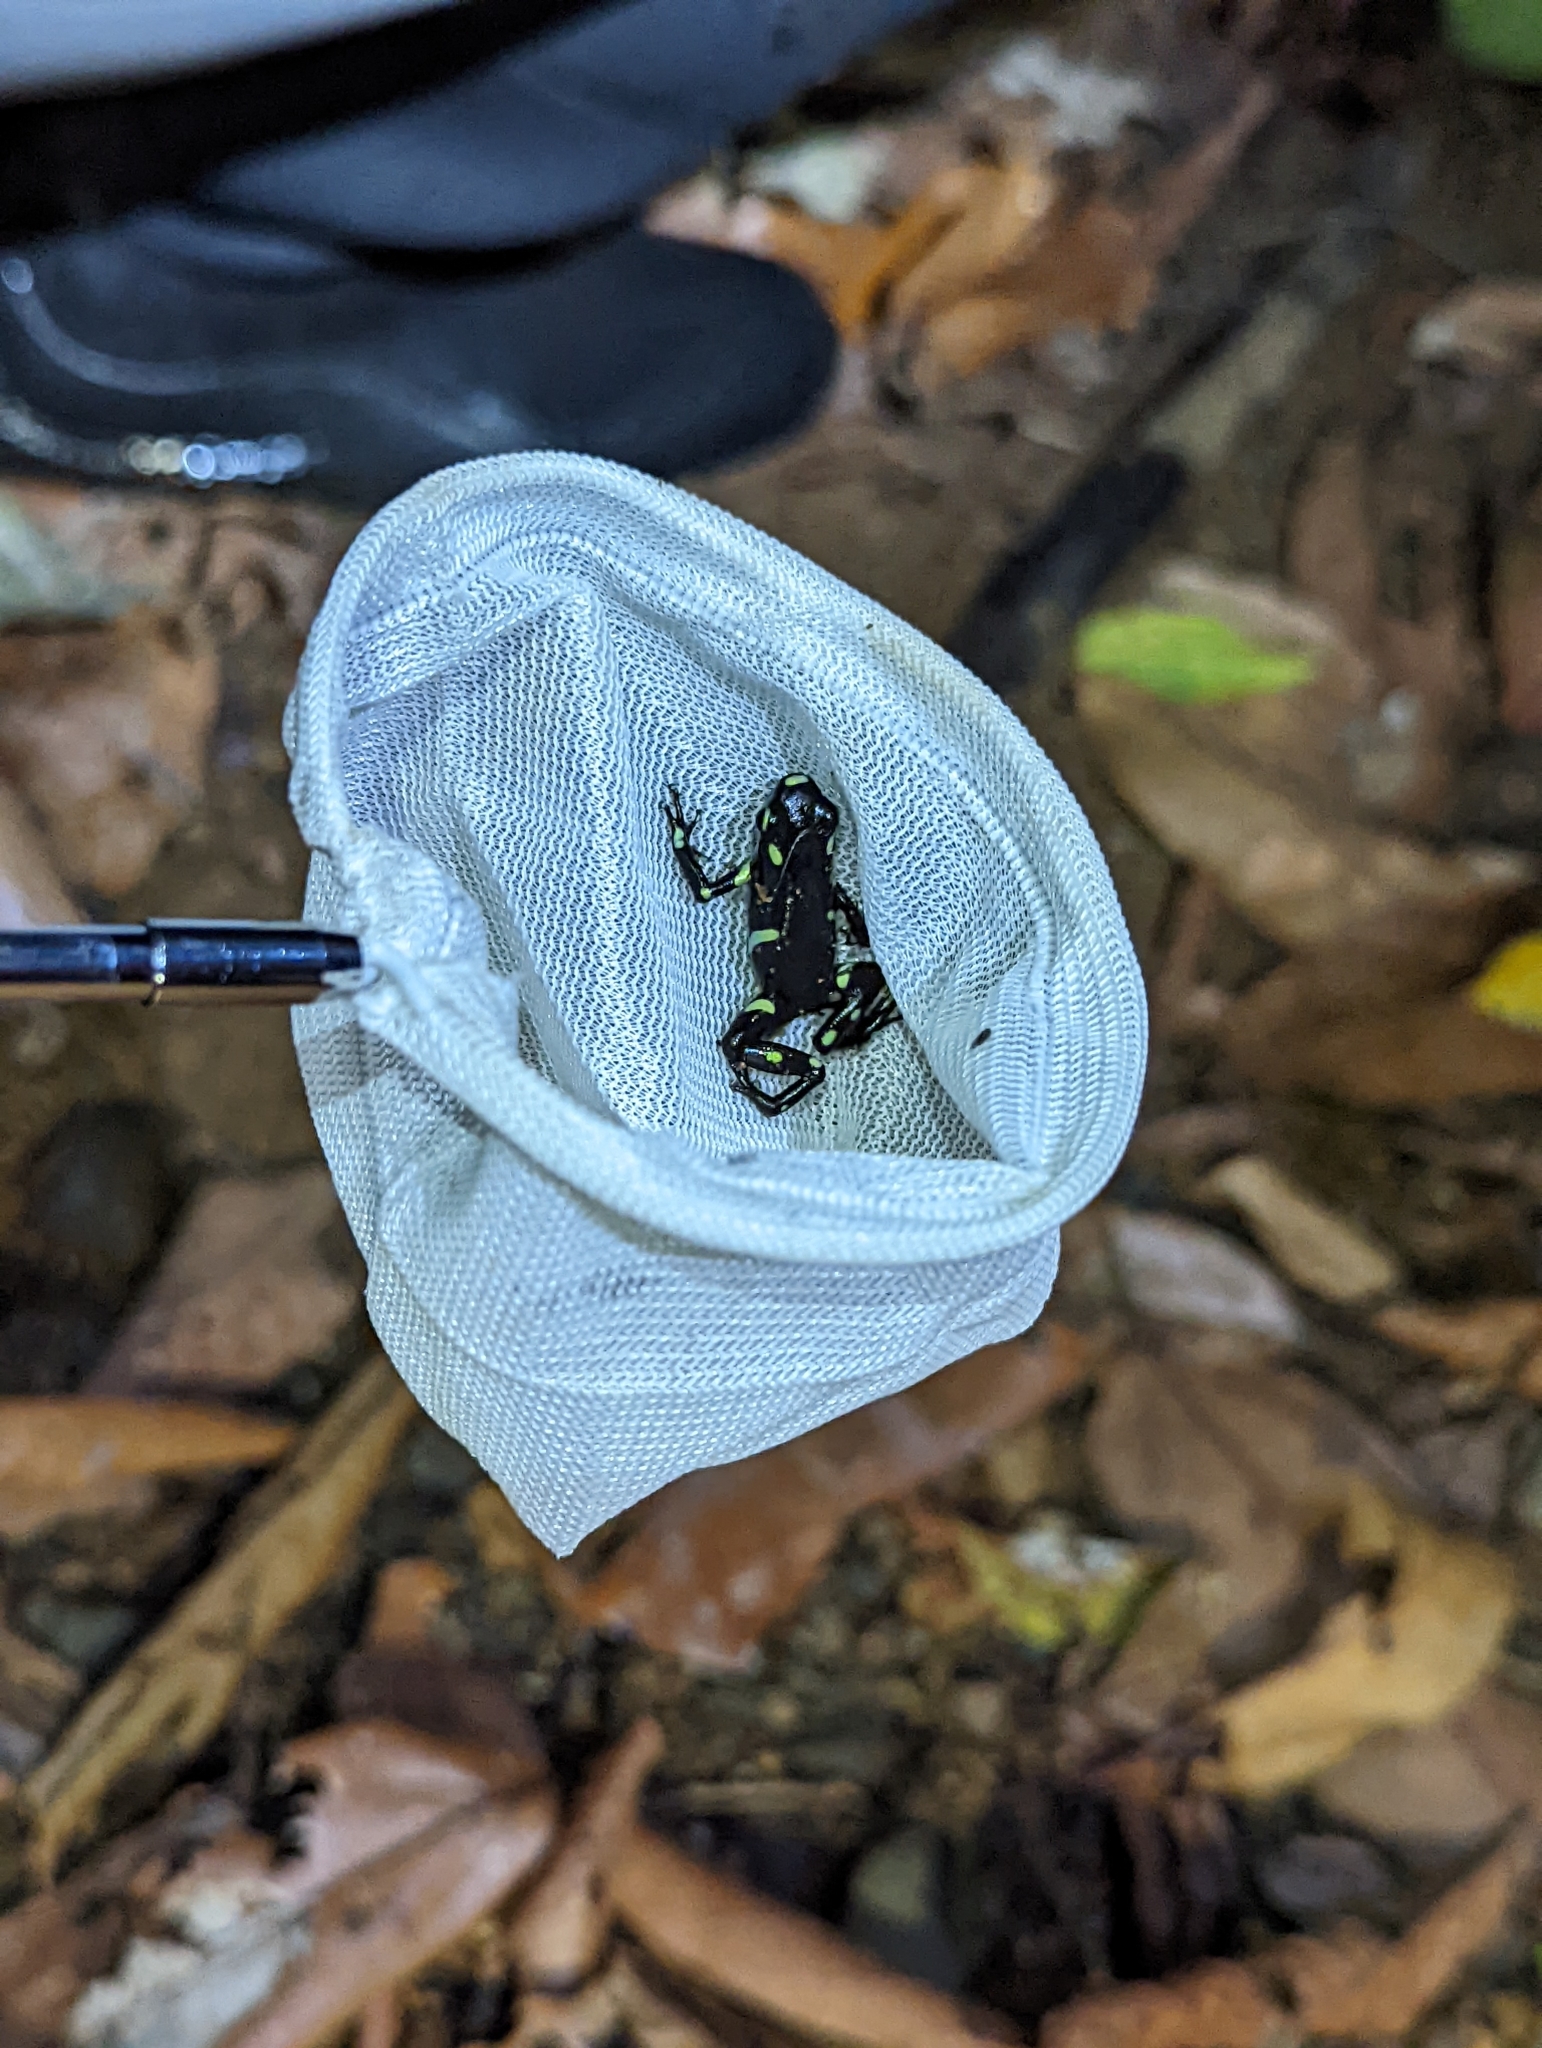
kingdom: Animalia
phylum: Chordata
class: Amphibia
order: Anura
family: Dendrobatidae
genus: Dendrobates
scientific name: Dendrobates auratus
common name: Green and black poison dart frog
